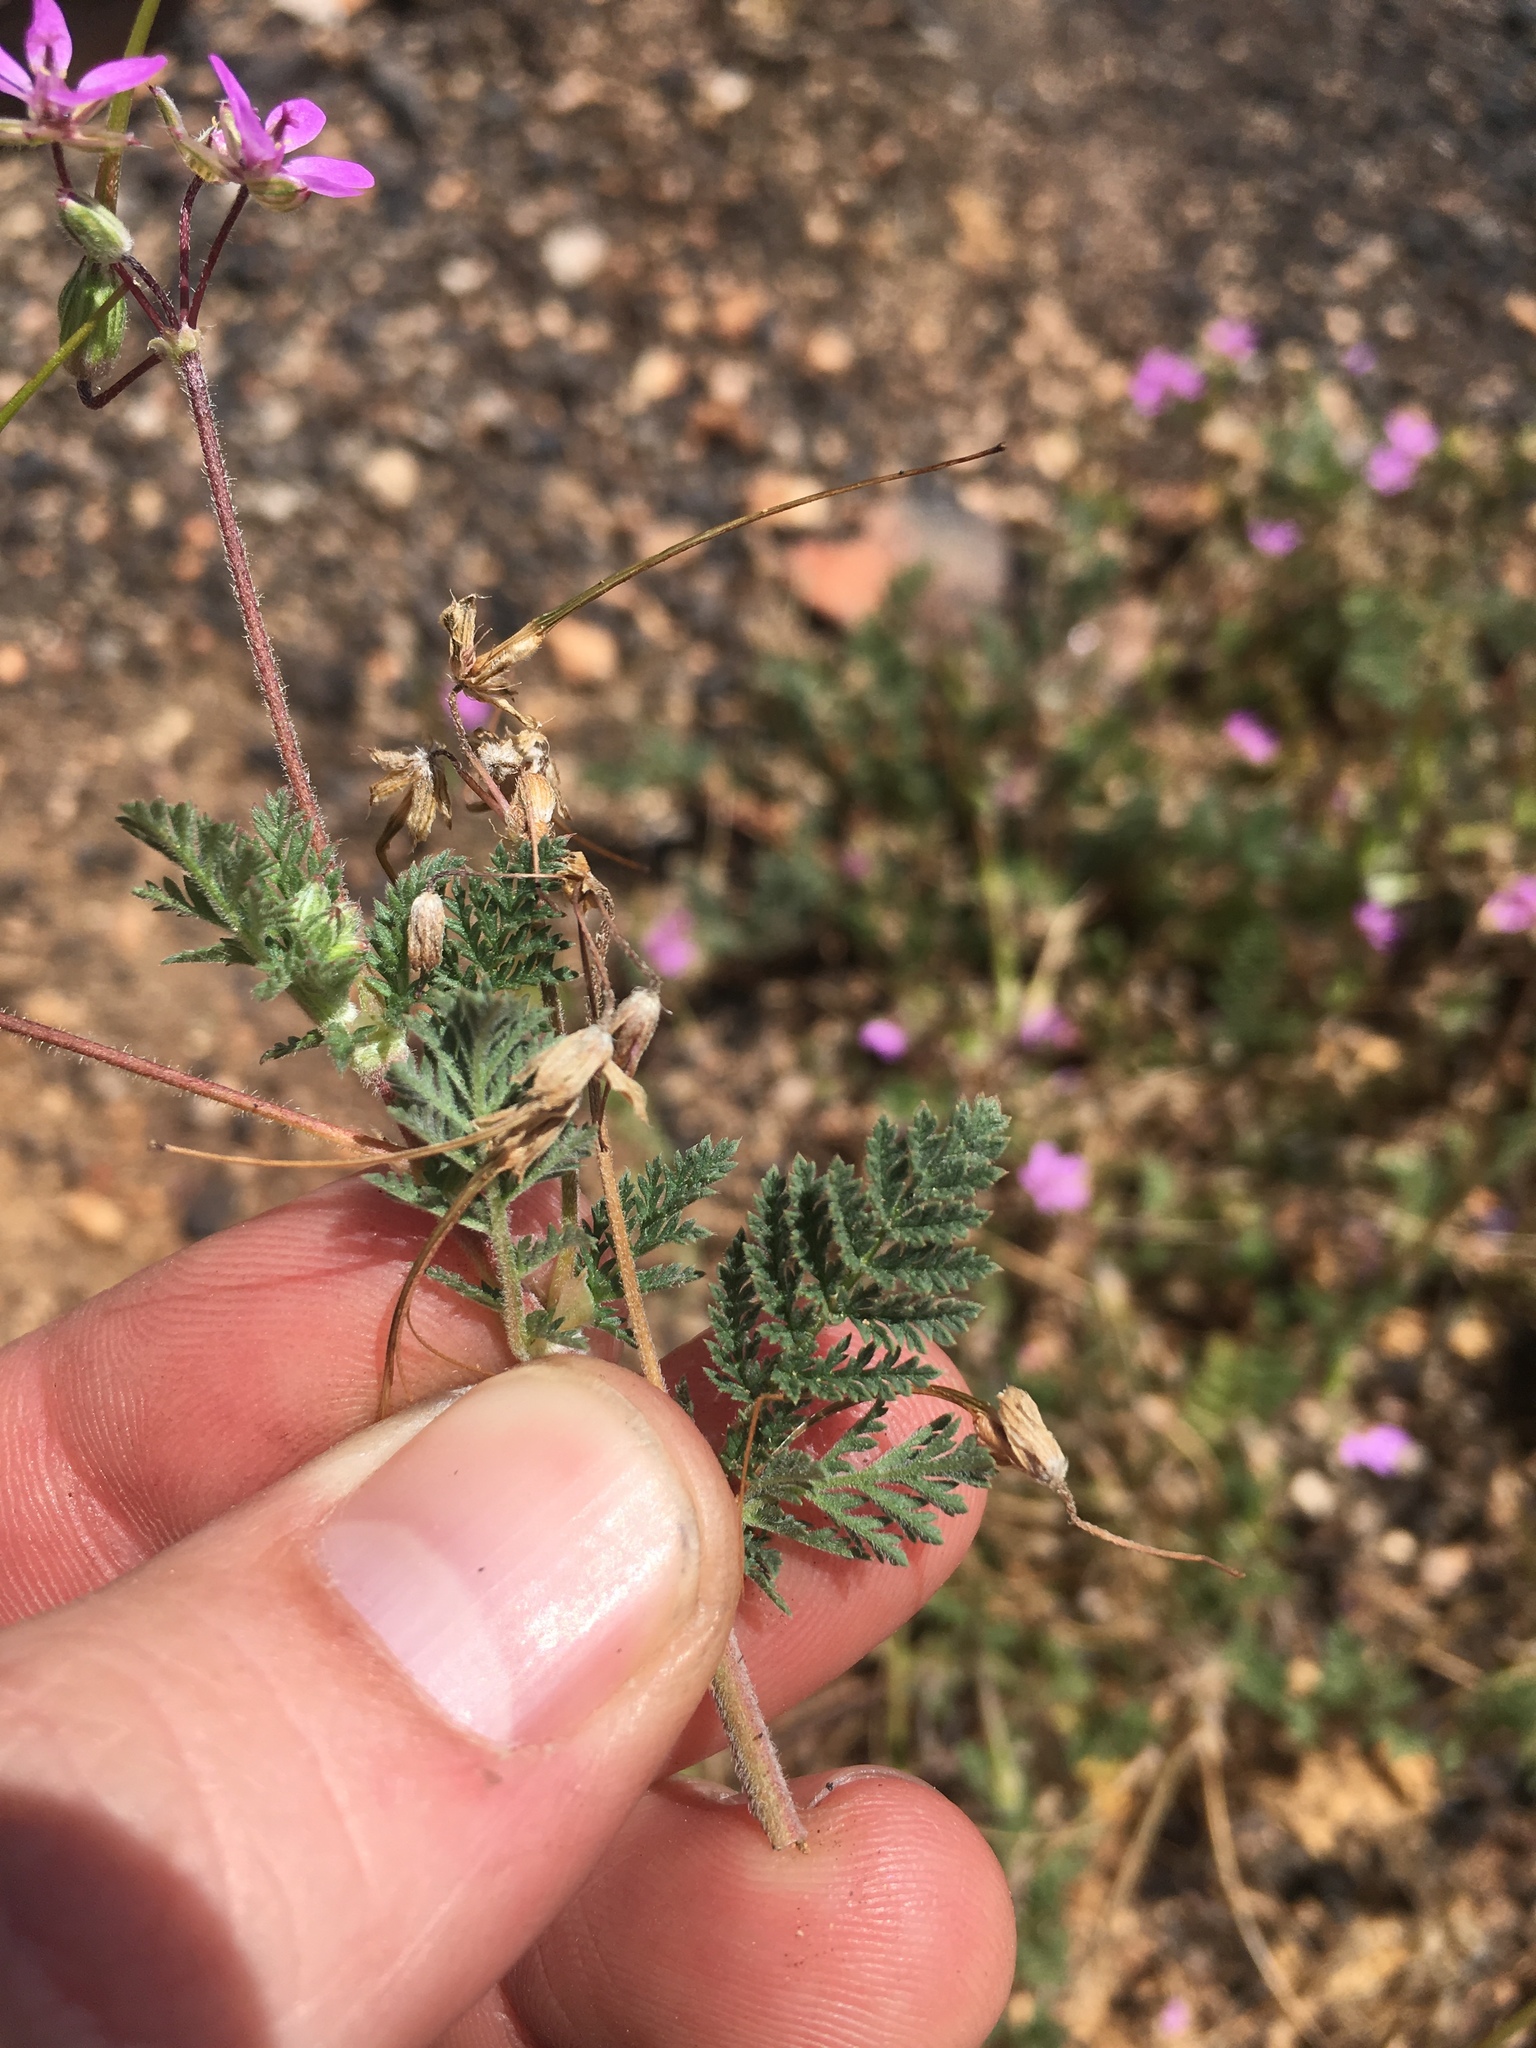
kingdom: Plantae
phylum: Tracheophyta
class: Magnoliopsida
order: Geraniales
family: Geraniaceae
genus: Erodium
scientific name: Erodium cicutarium
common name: Common stork's-bill
